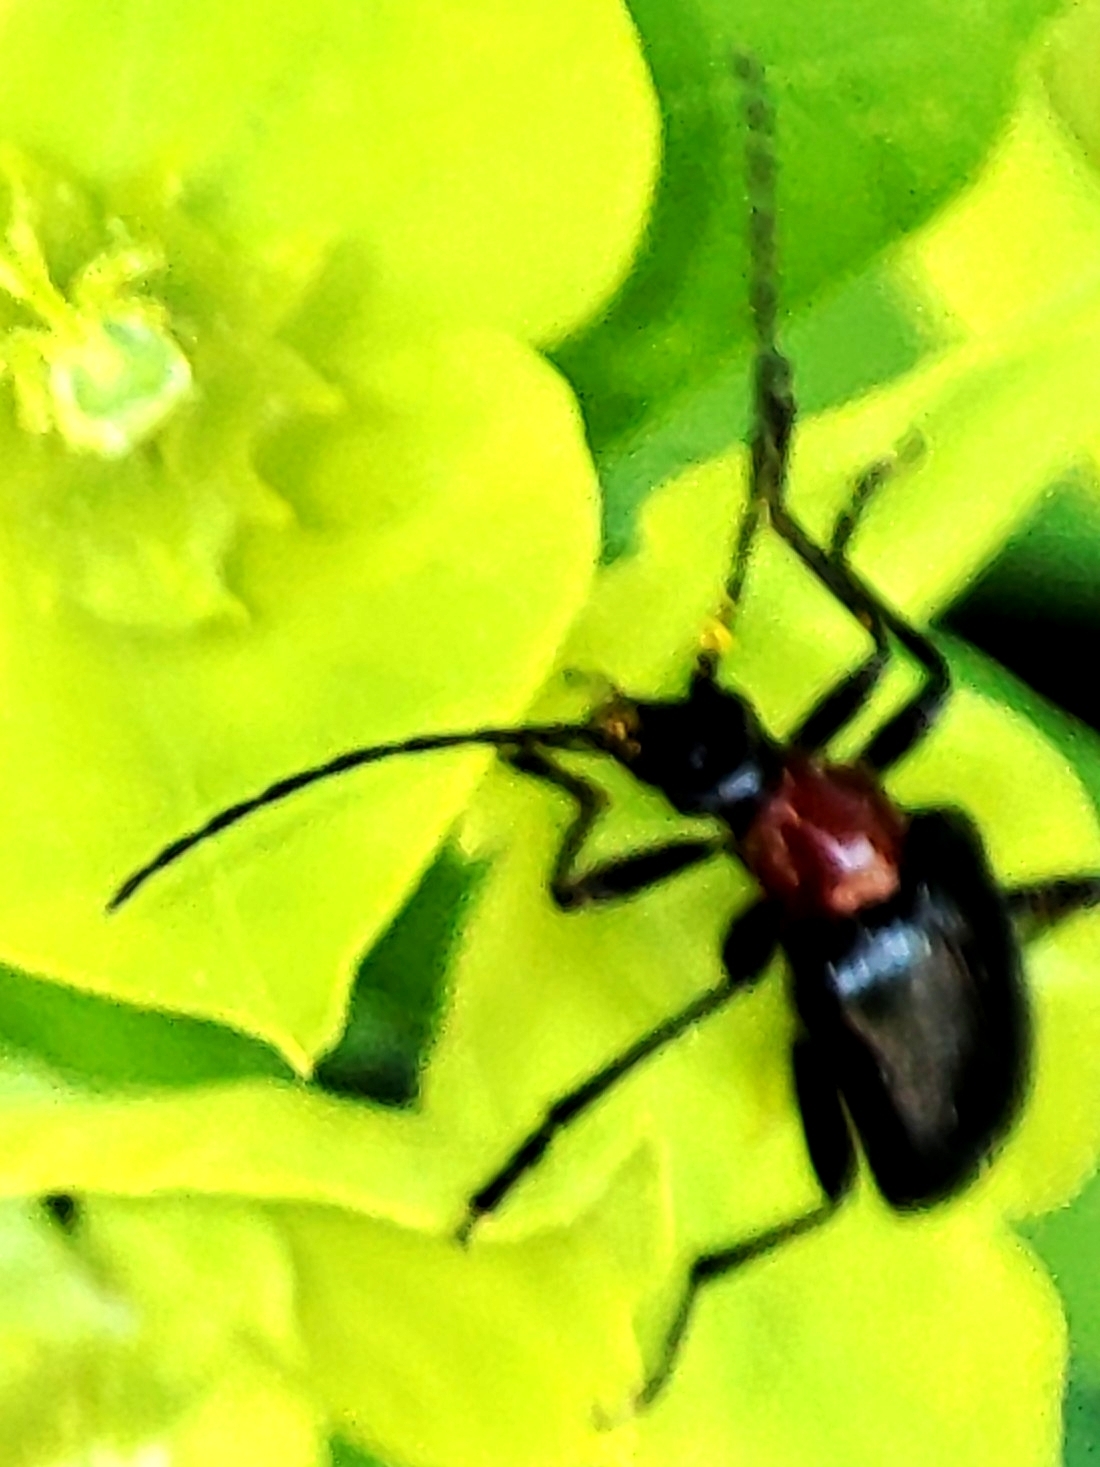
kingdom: Animalia
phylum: Arthropoda
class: Insecta
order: Coleoptera
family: Cerambycidae
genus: Dinoptera
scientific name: Dinoptera collaris
